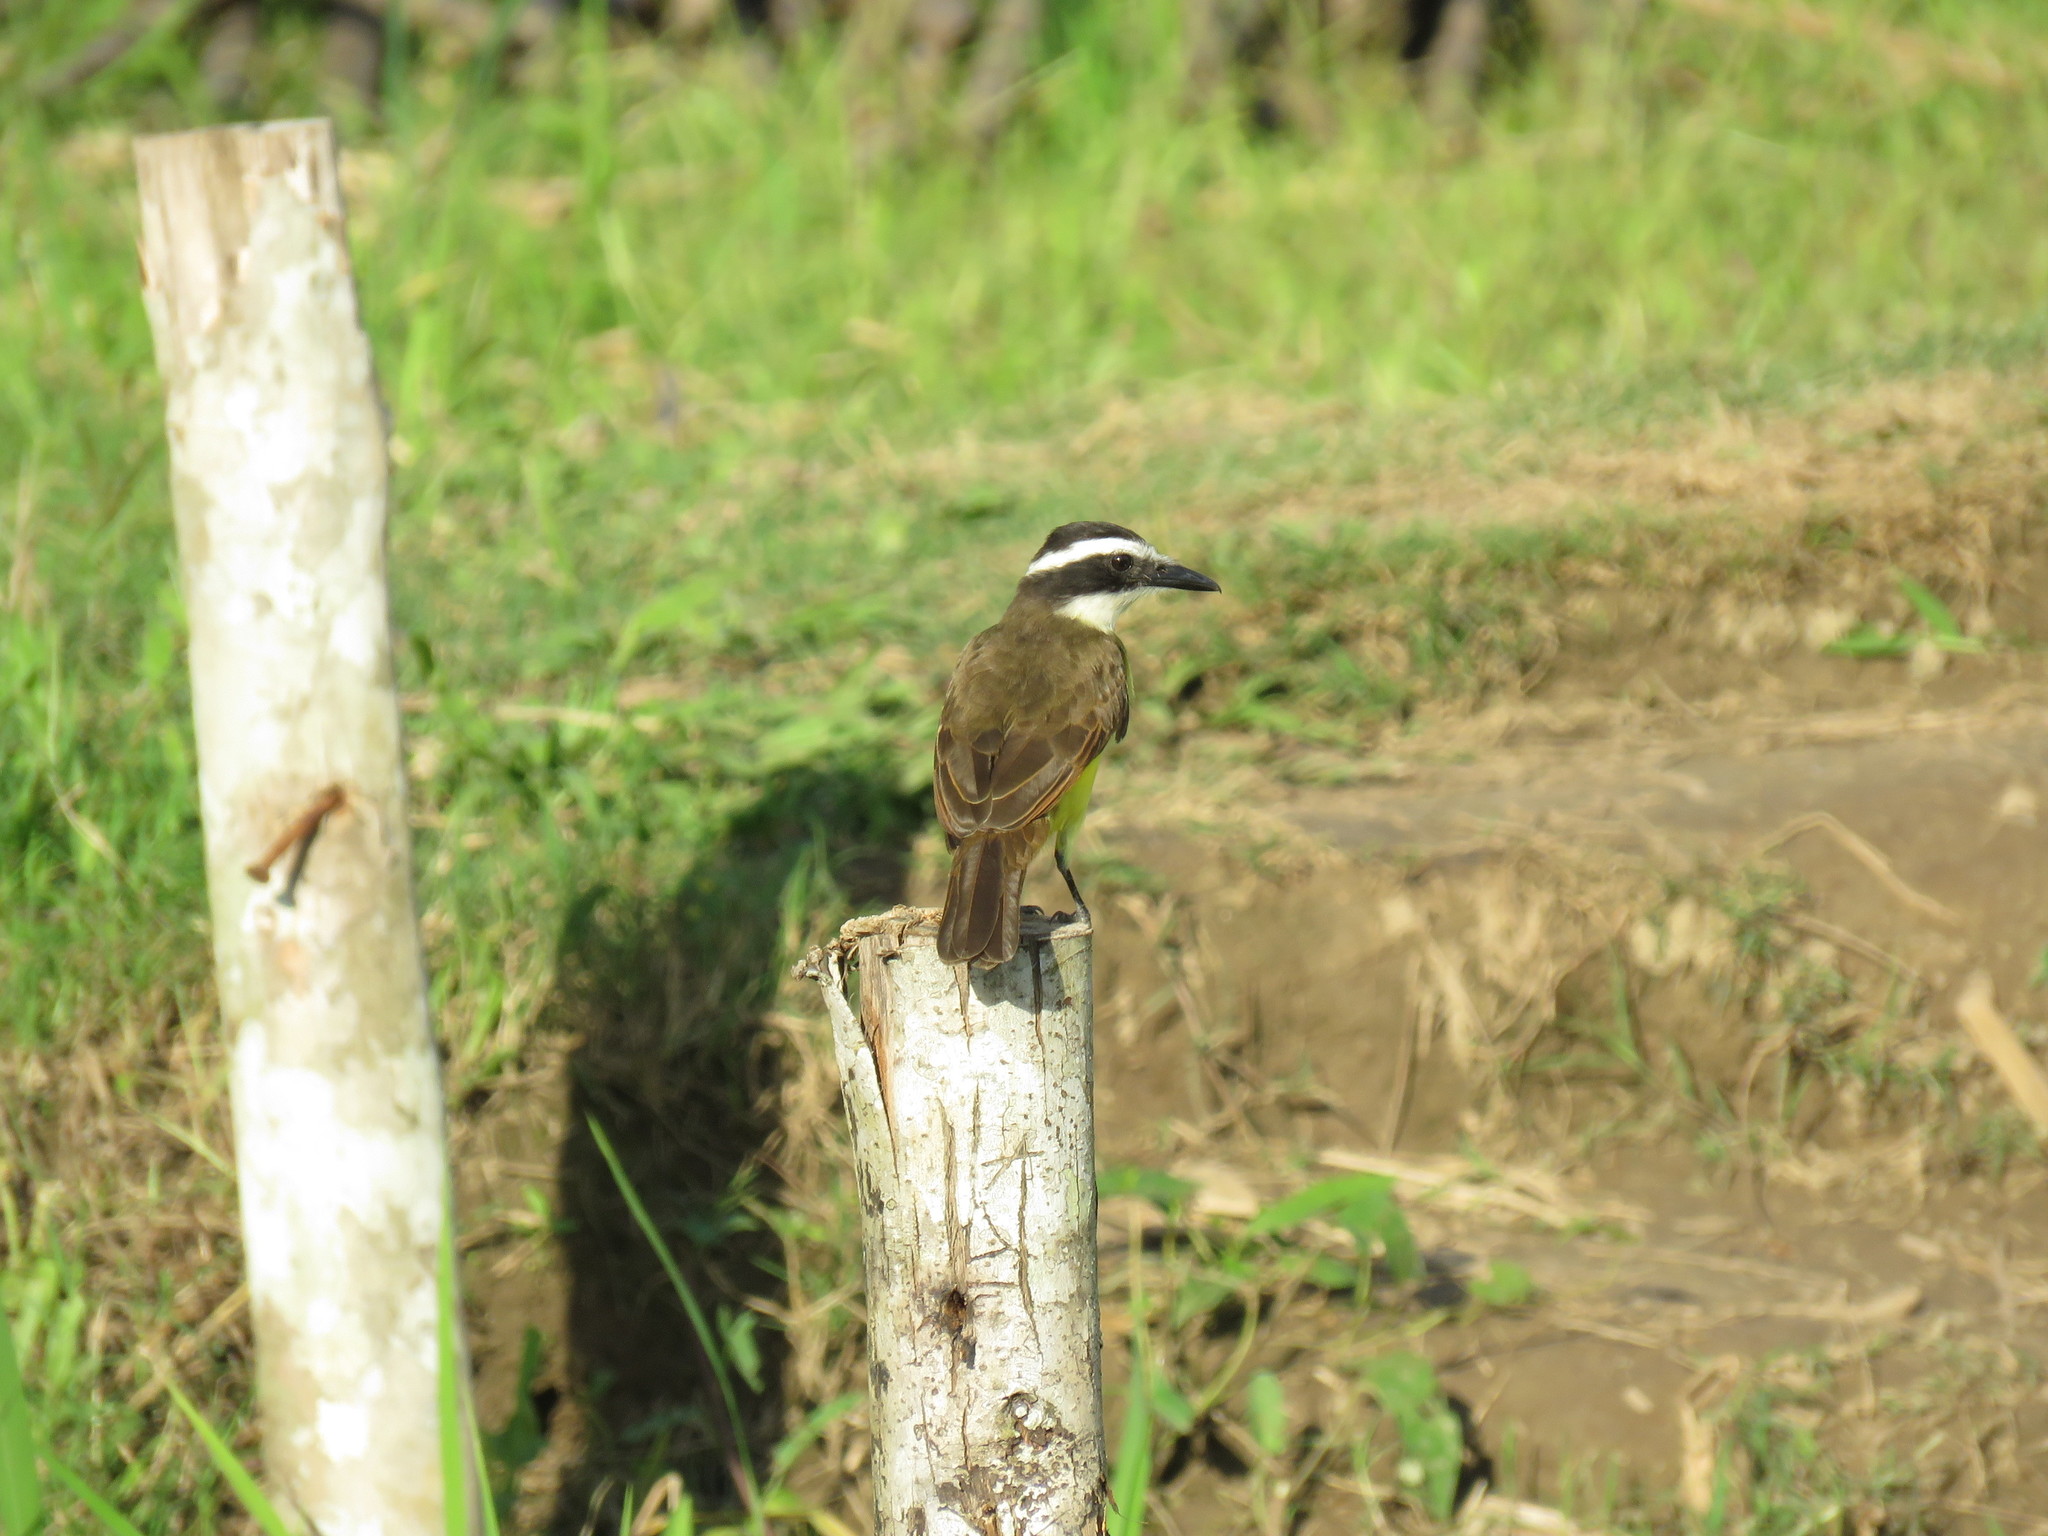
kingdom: Animalia
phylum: Chordata
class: Aves
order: Passeriformes
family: Tyrannidae
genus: Megarynchus
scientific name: Megarynchus pitangua
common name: Boat-billed flycatcher
